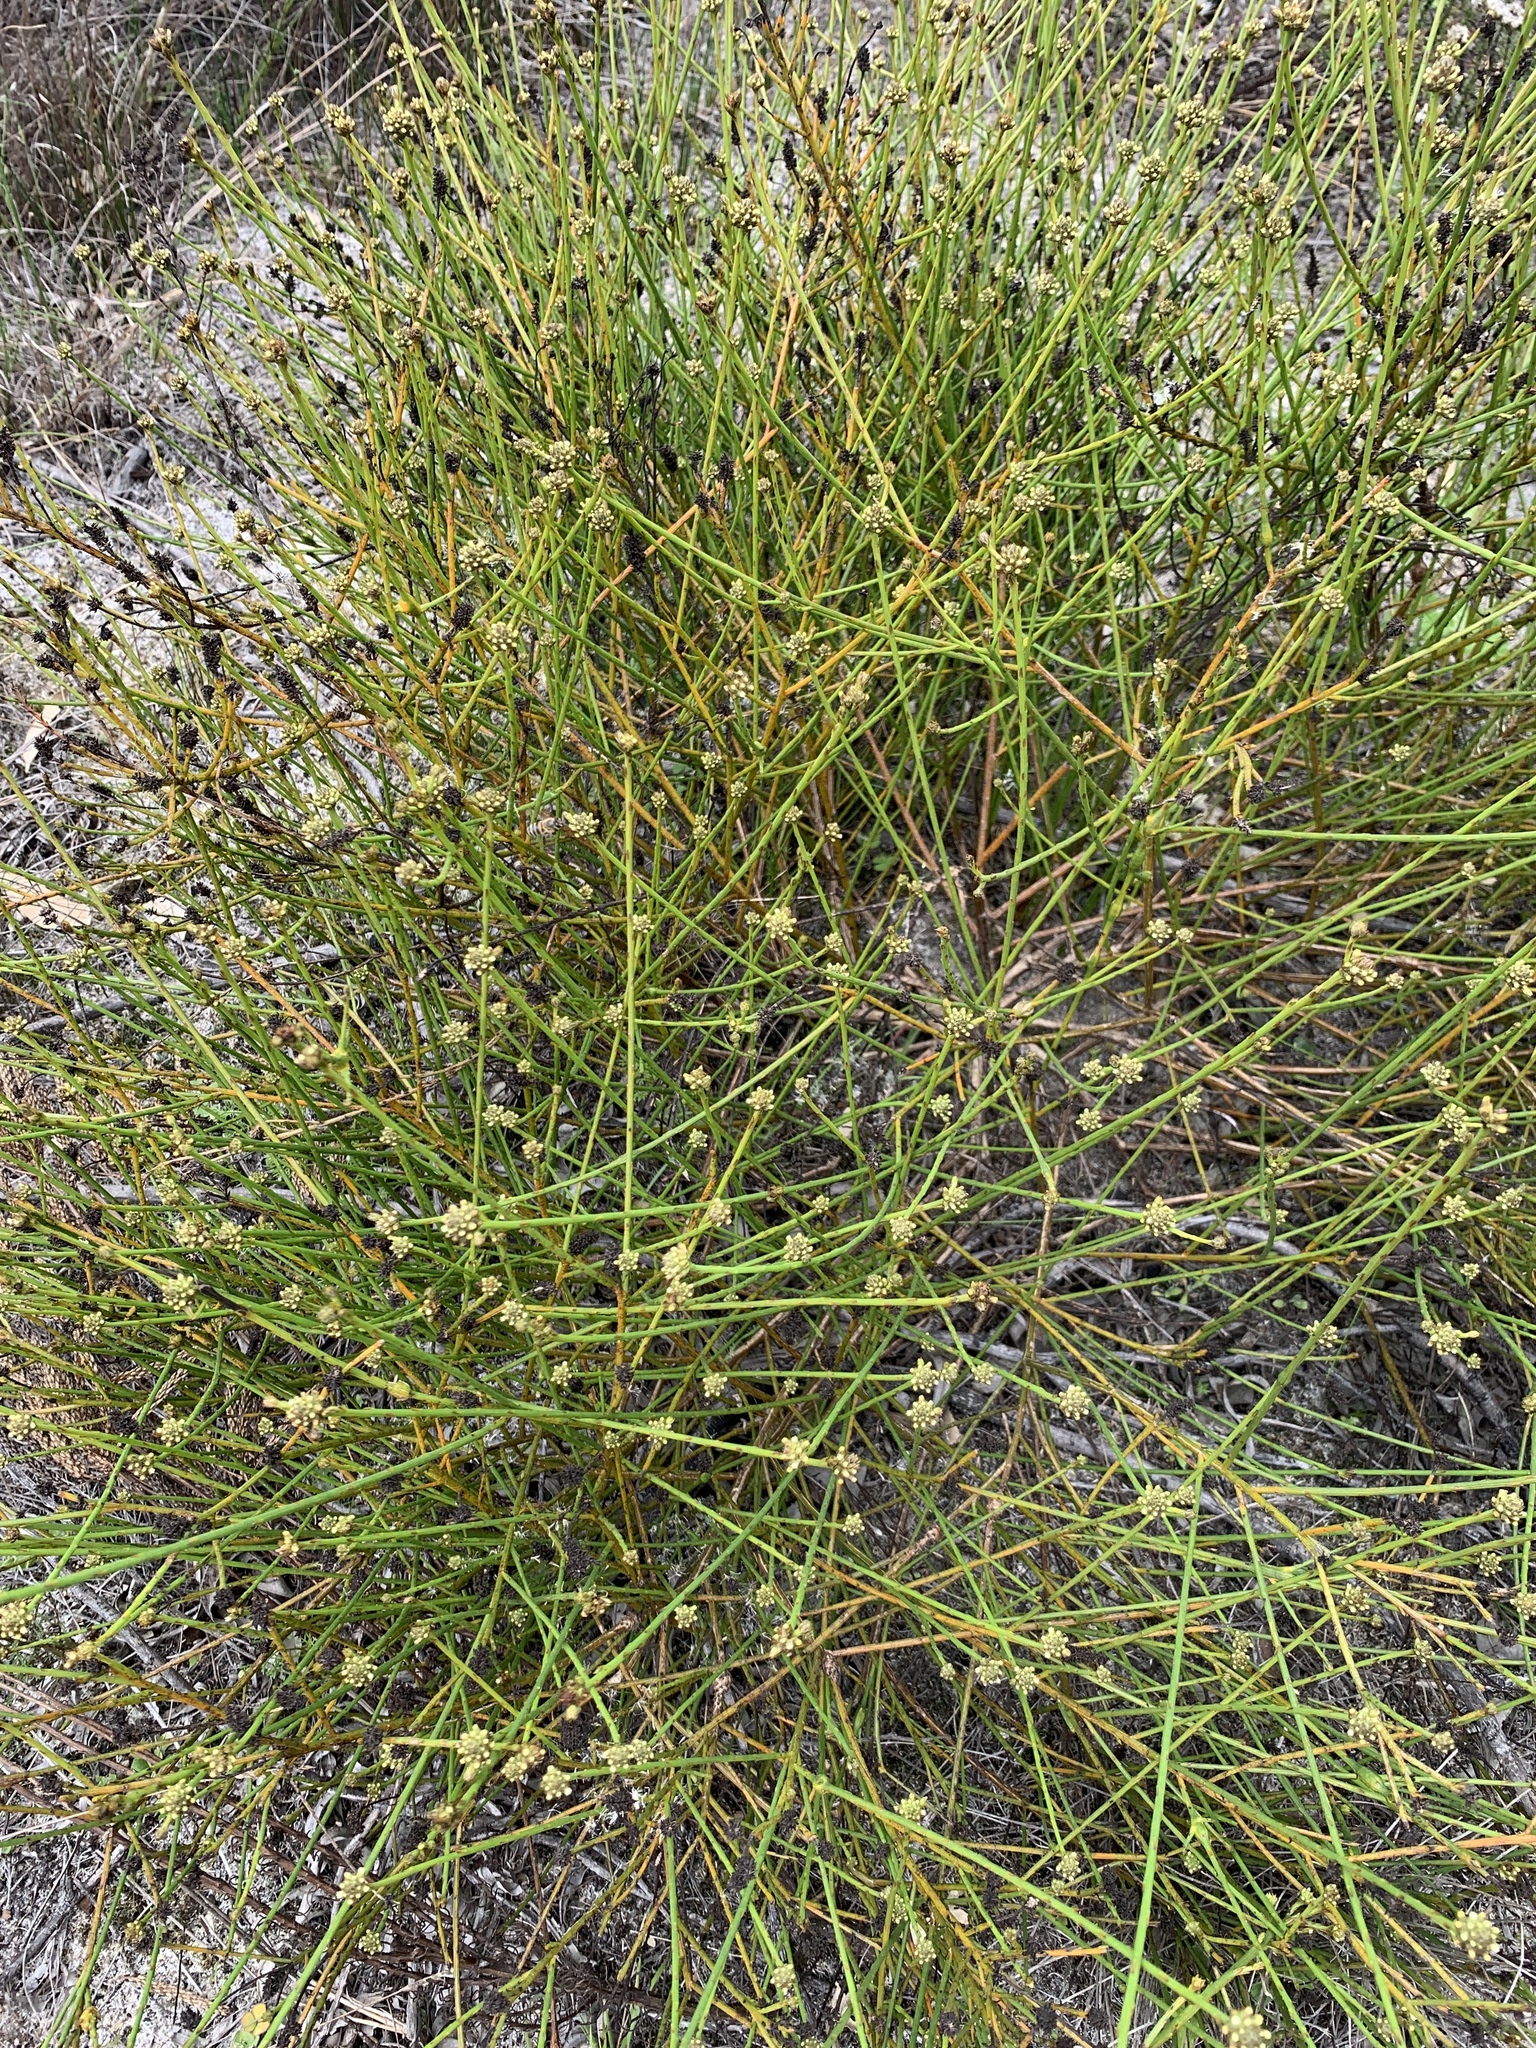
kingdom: Plantae
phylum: Tracheophyta
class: Magnoliopsida
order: Santalales
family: Thesiaceae
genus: Thesium
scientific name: Thesium aggregatum
